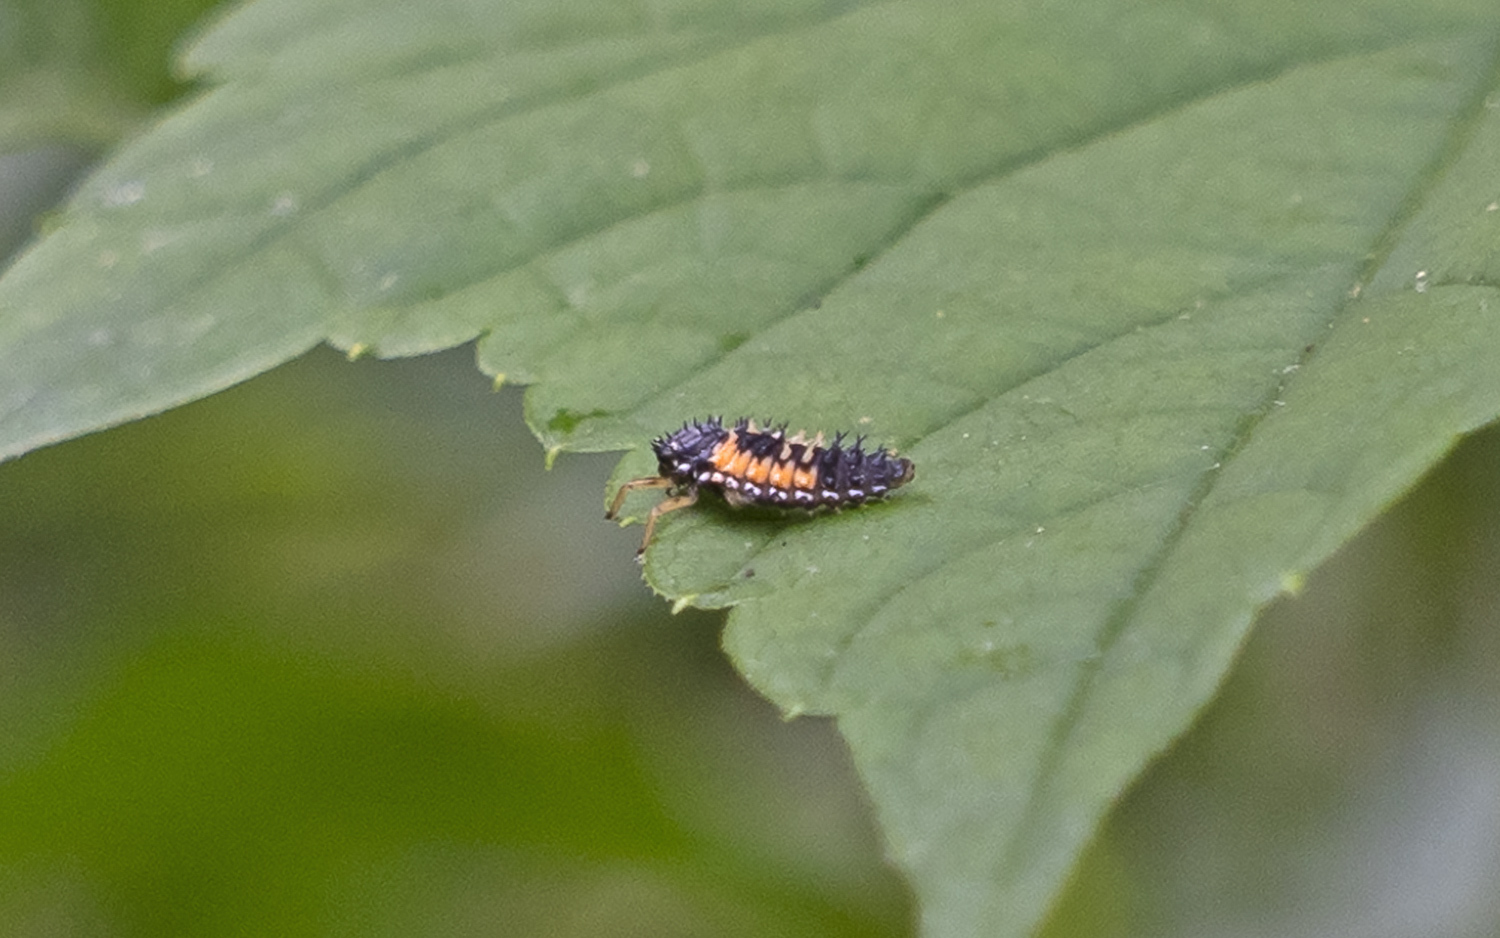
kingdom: Animalia
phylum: Arthropoda
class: Insecta
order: Coleoptera
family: Coccinellidae
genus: Harmonia
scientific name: Harmonia axyridis
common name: Harlequin ladybird
